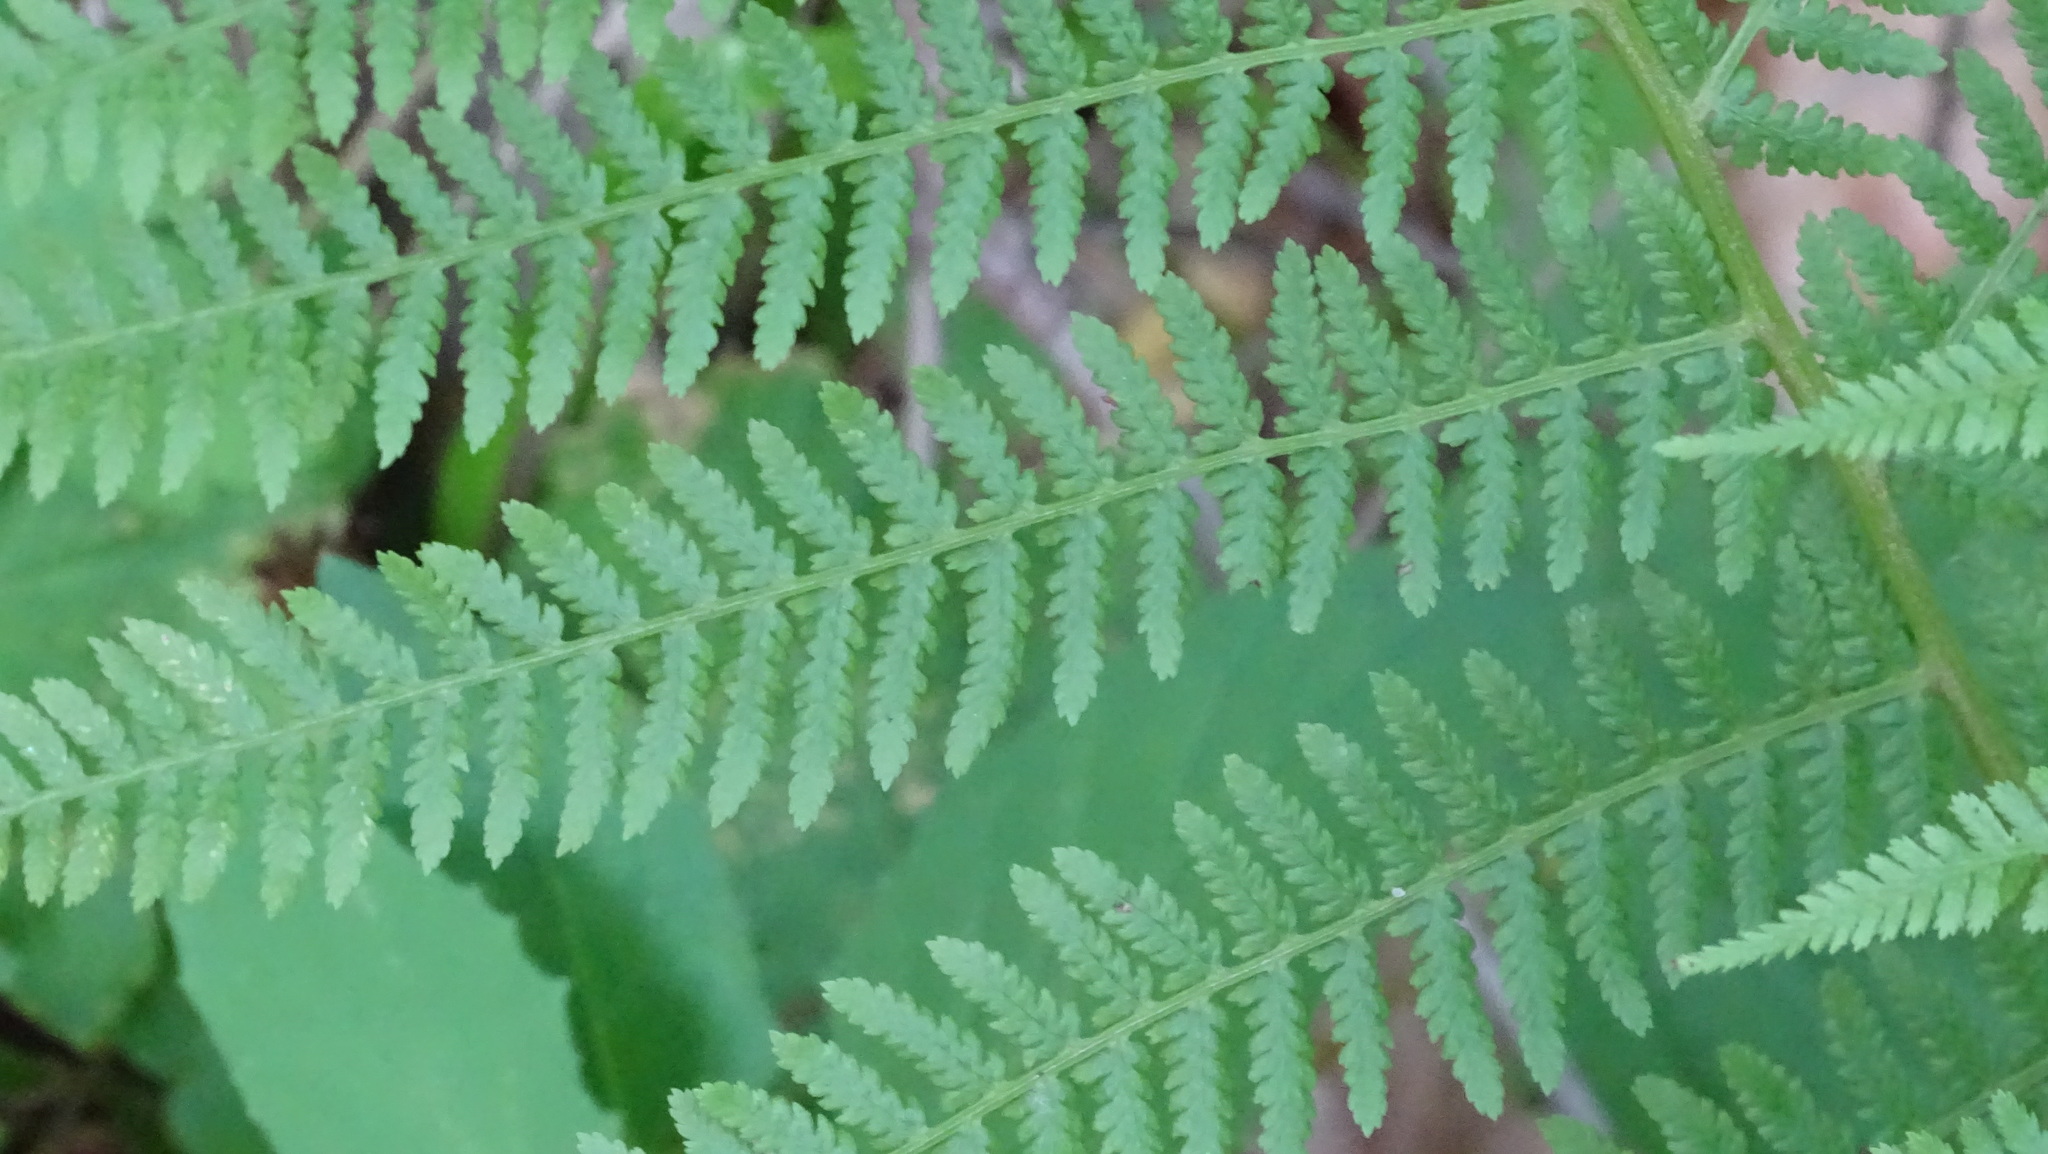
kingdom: Plantae
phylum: Tracheophyta
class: Polypodiopsida
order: Polypodiales
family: Athyriaceae
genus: Athyrium
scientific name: Athyrium filix-femina
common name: Lady fern
